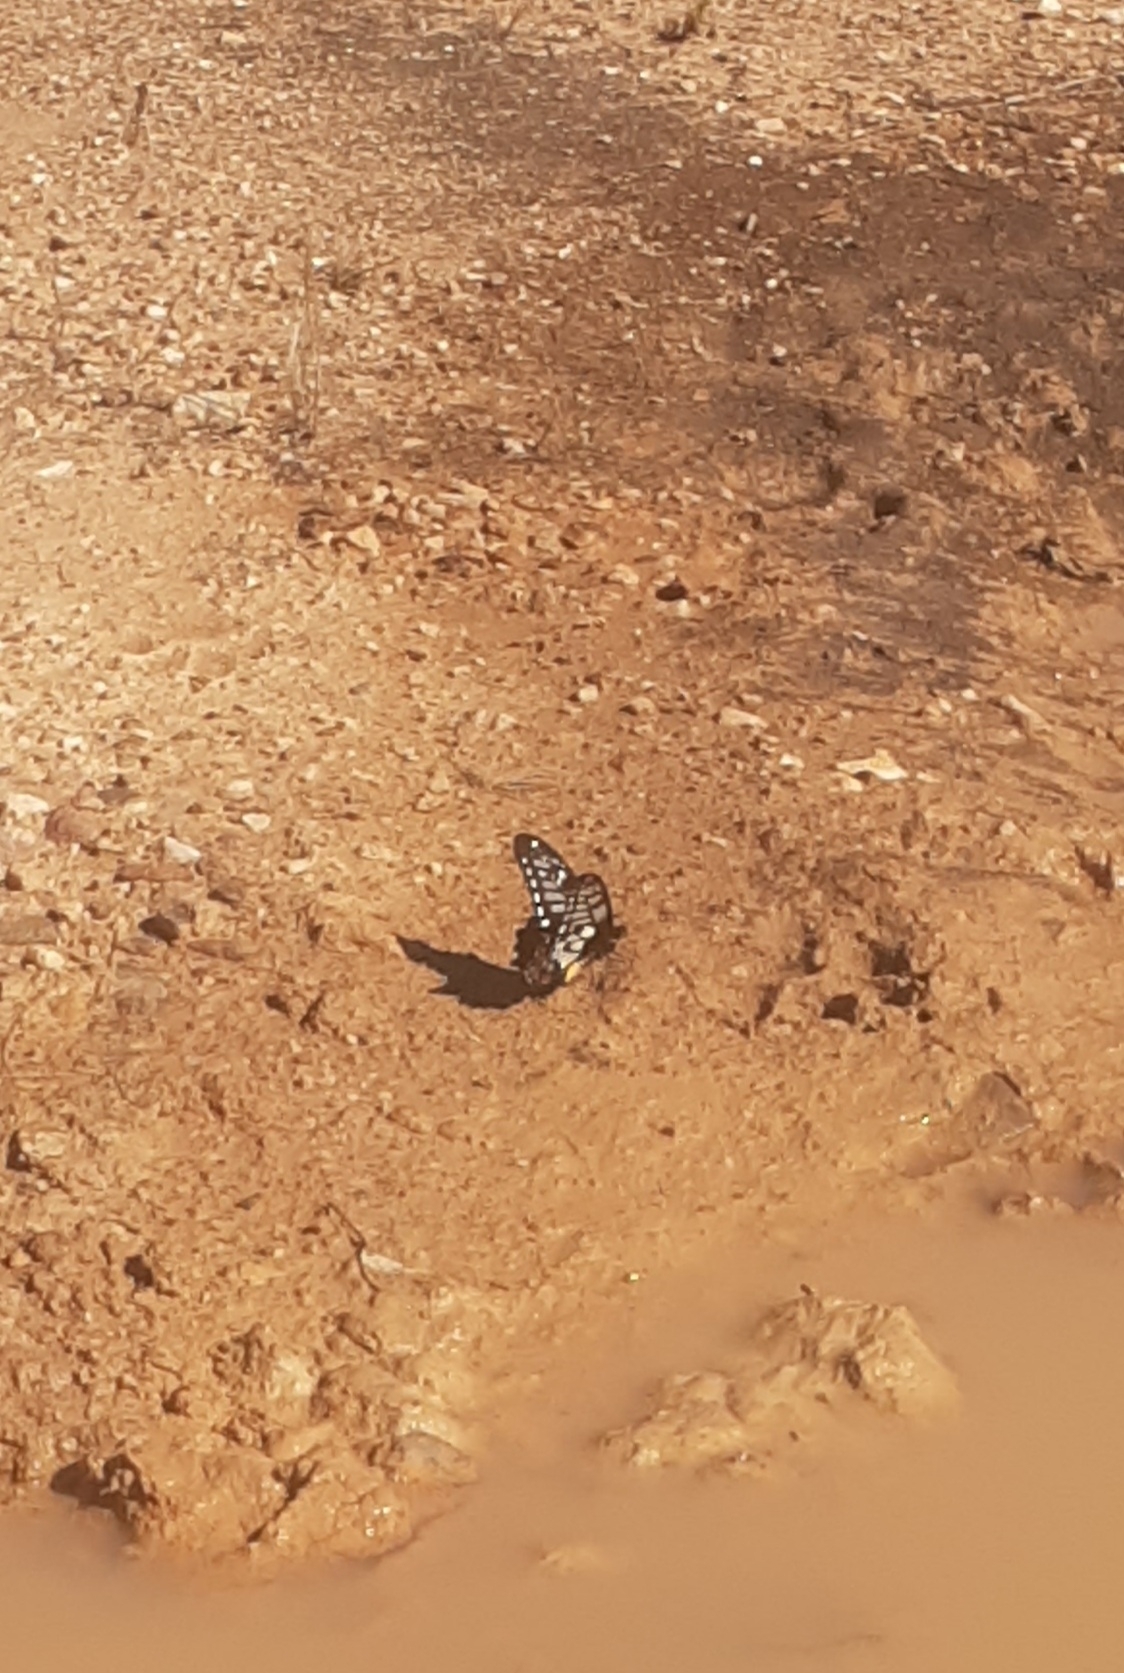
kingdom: Animalia
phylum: Arthropoda
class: Insecta
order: Lepidoptera
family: Papilionidae
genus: Papilio
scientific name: Papilio anactus
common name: Dingy swallowtail
